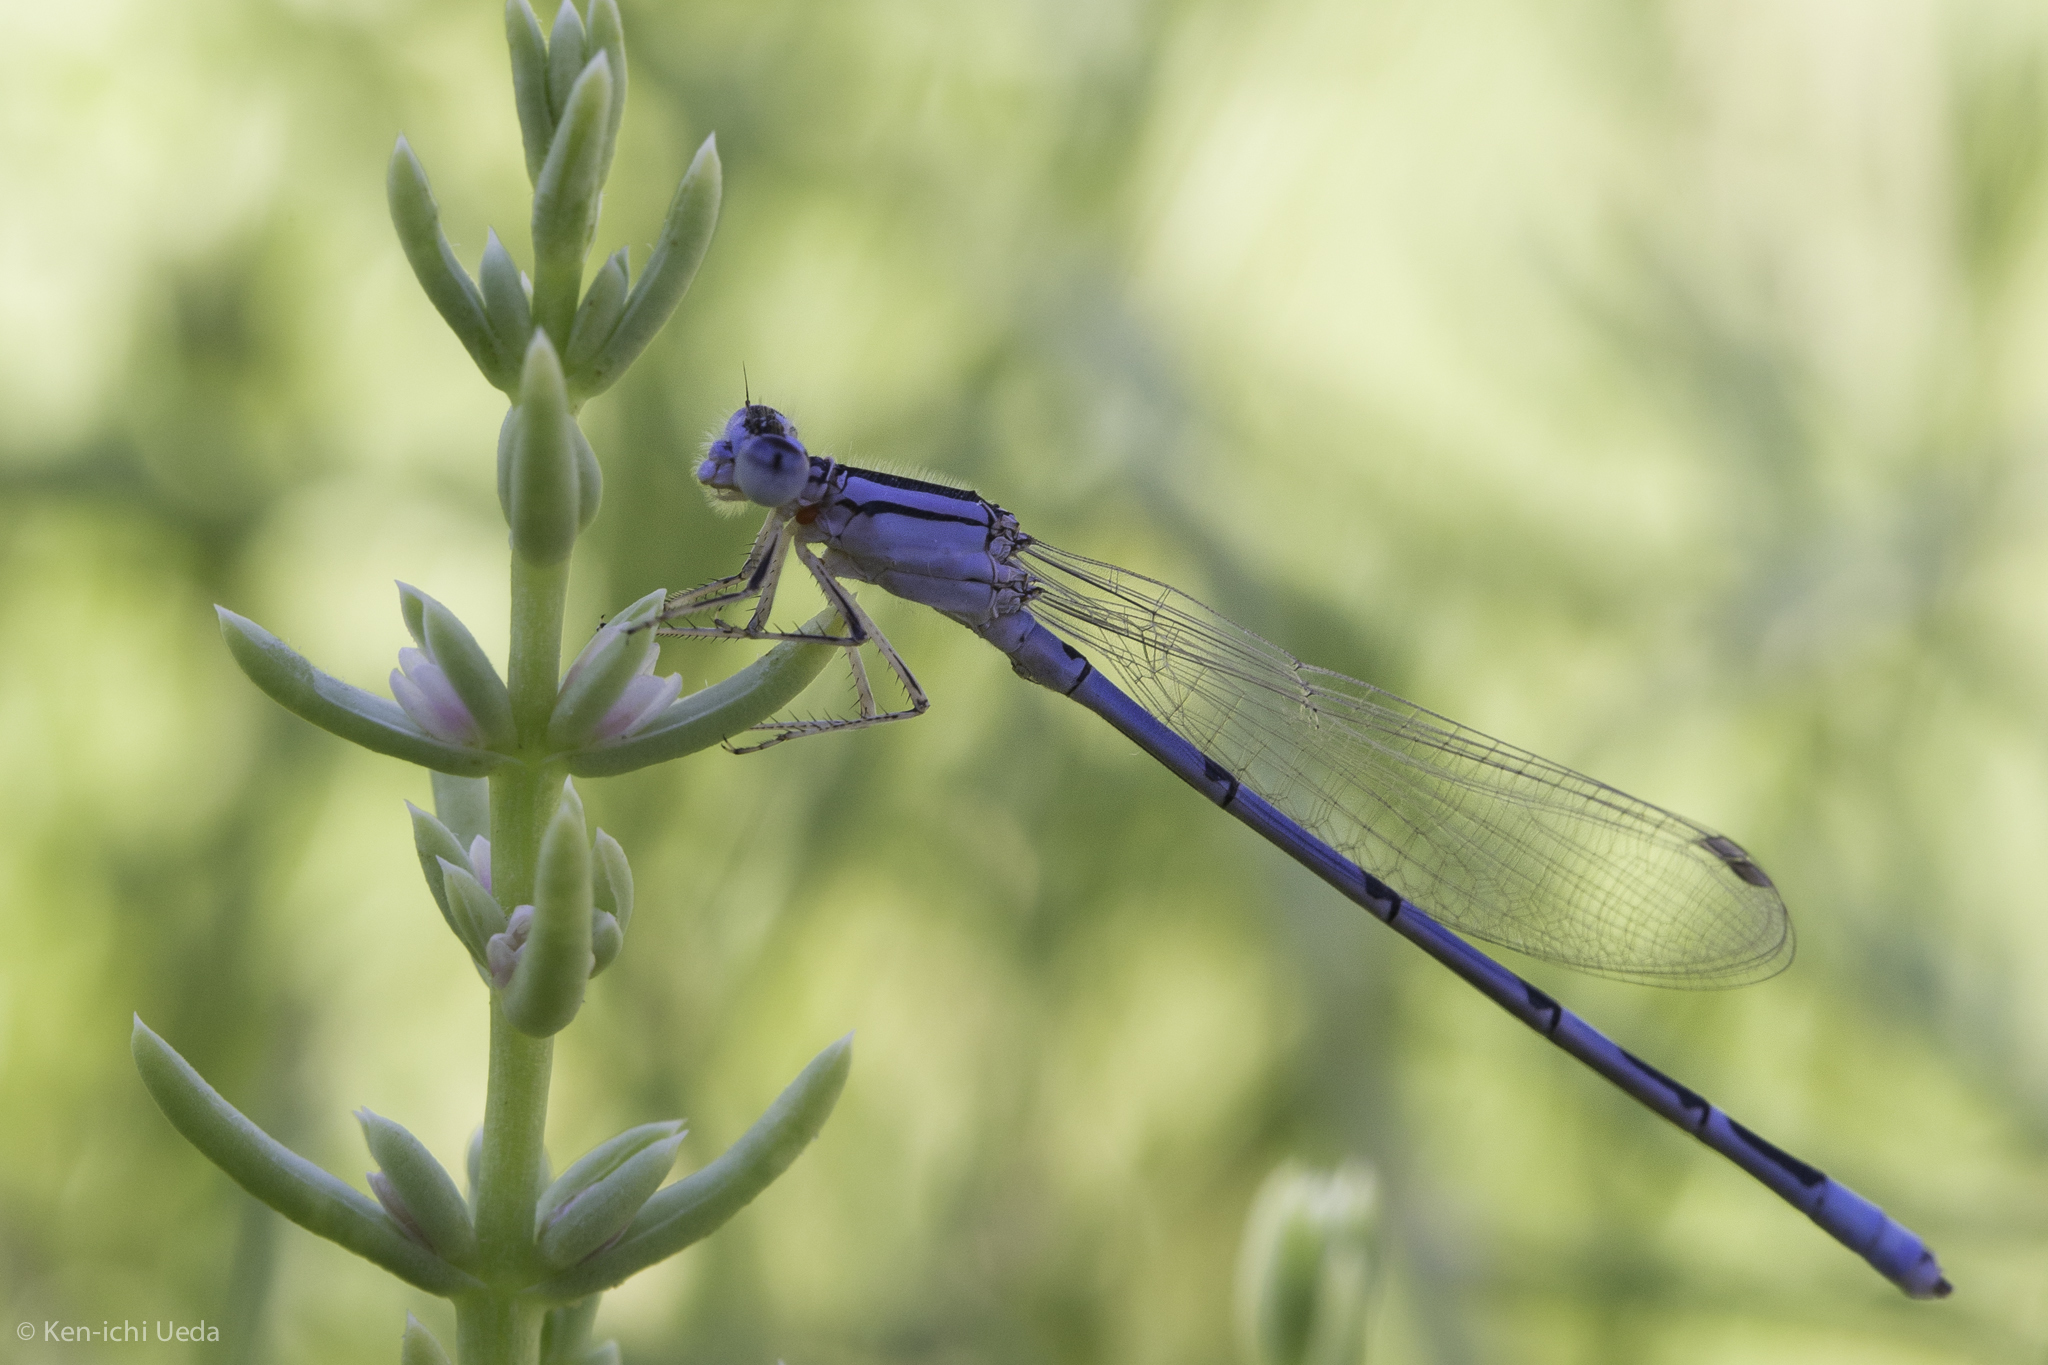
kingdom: Animalia
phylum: Arthropoda
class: Insecta
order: Odonata
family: Coenagrionidae
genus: Enallagma
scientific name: Enallagma civile
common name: Damselfly
